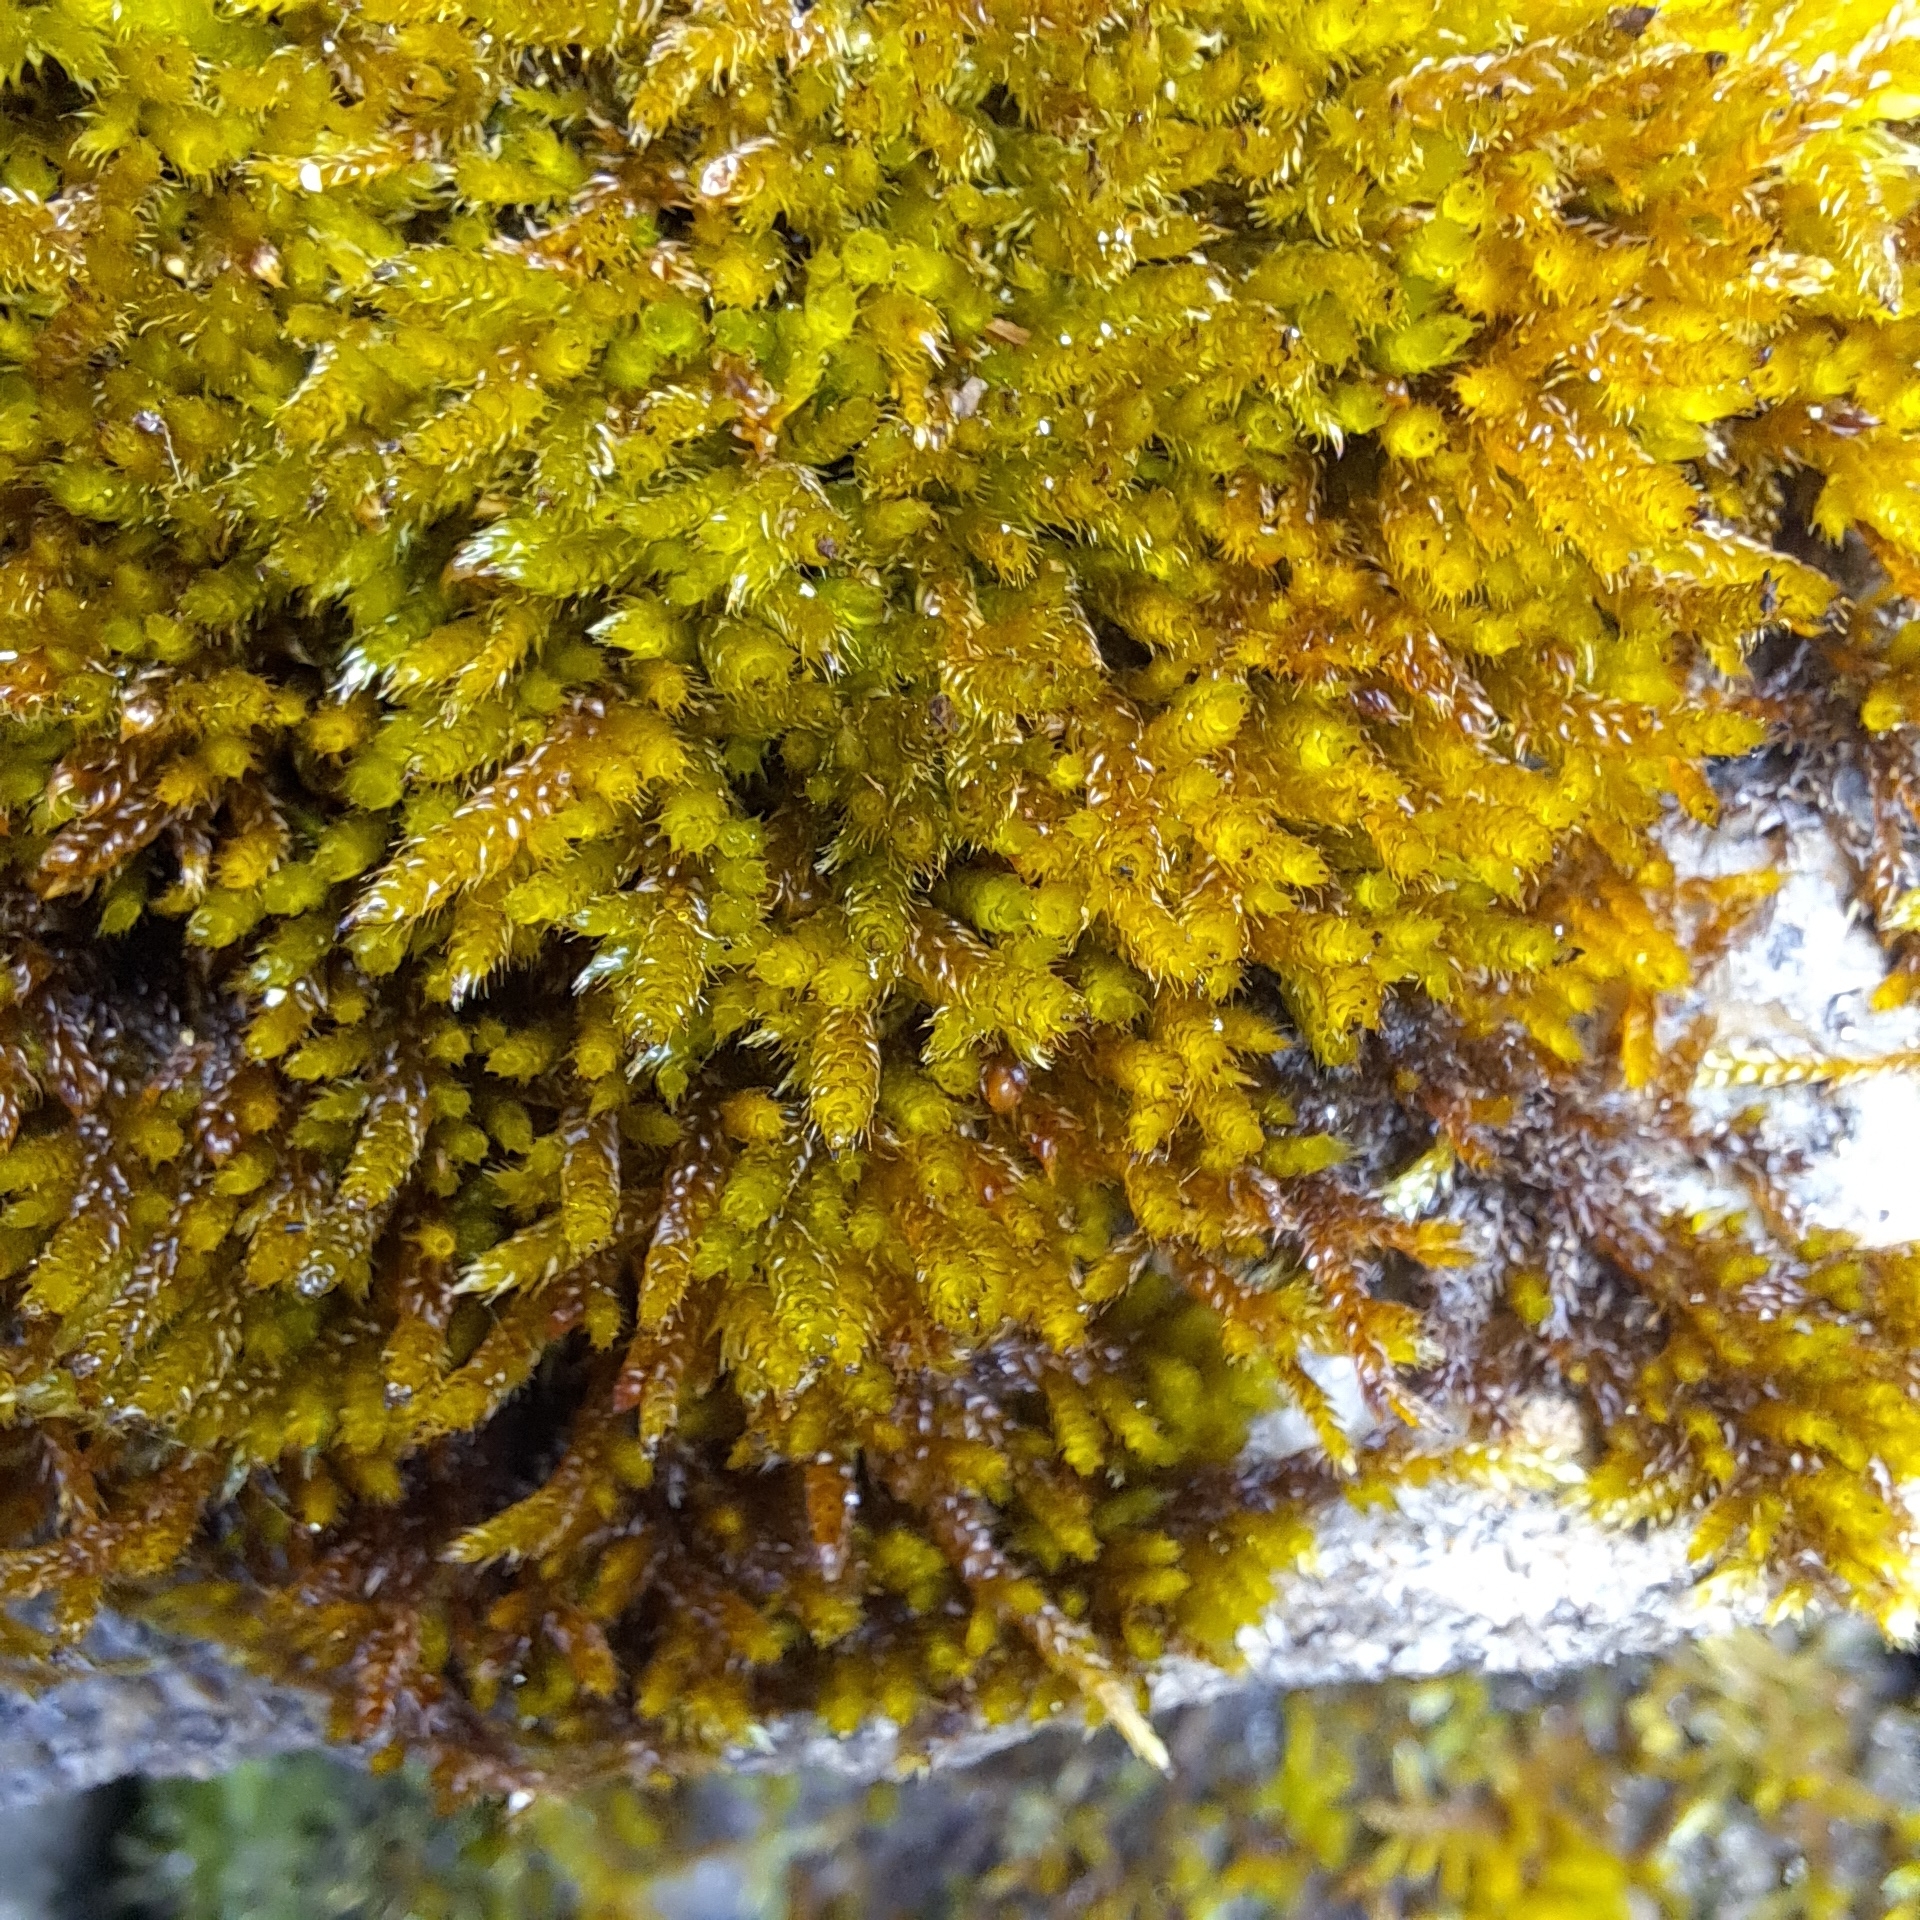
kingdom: Plantae
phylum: Bryophyta
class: Bryopsida
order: Hypnales
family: Hypnaceae
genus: Hypnum
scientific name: Hypnum cupressiforme
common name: Cypress-leaved plait-moss
